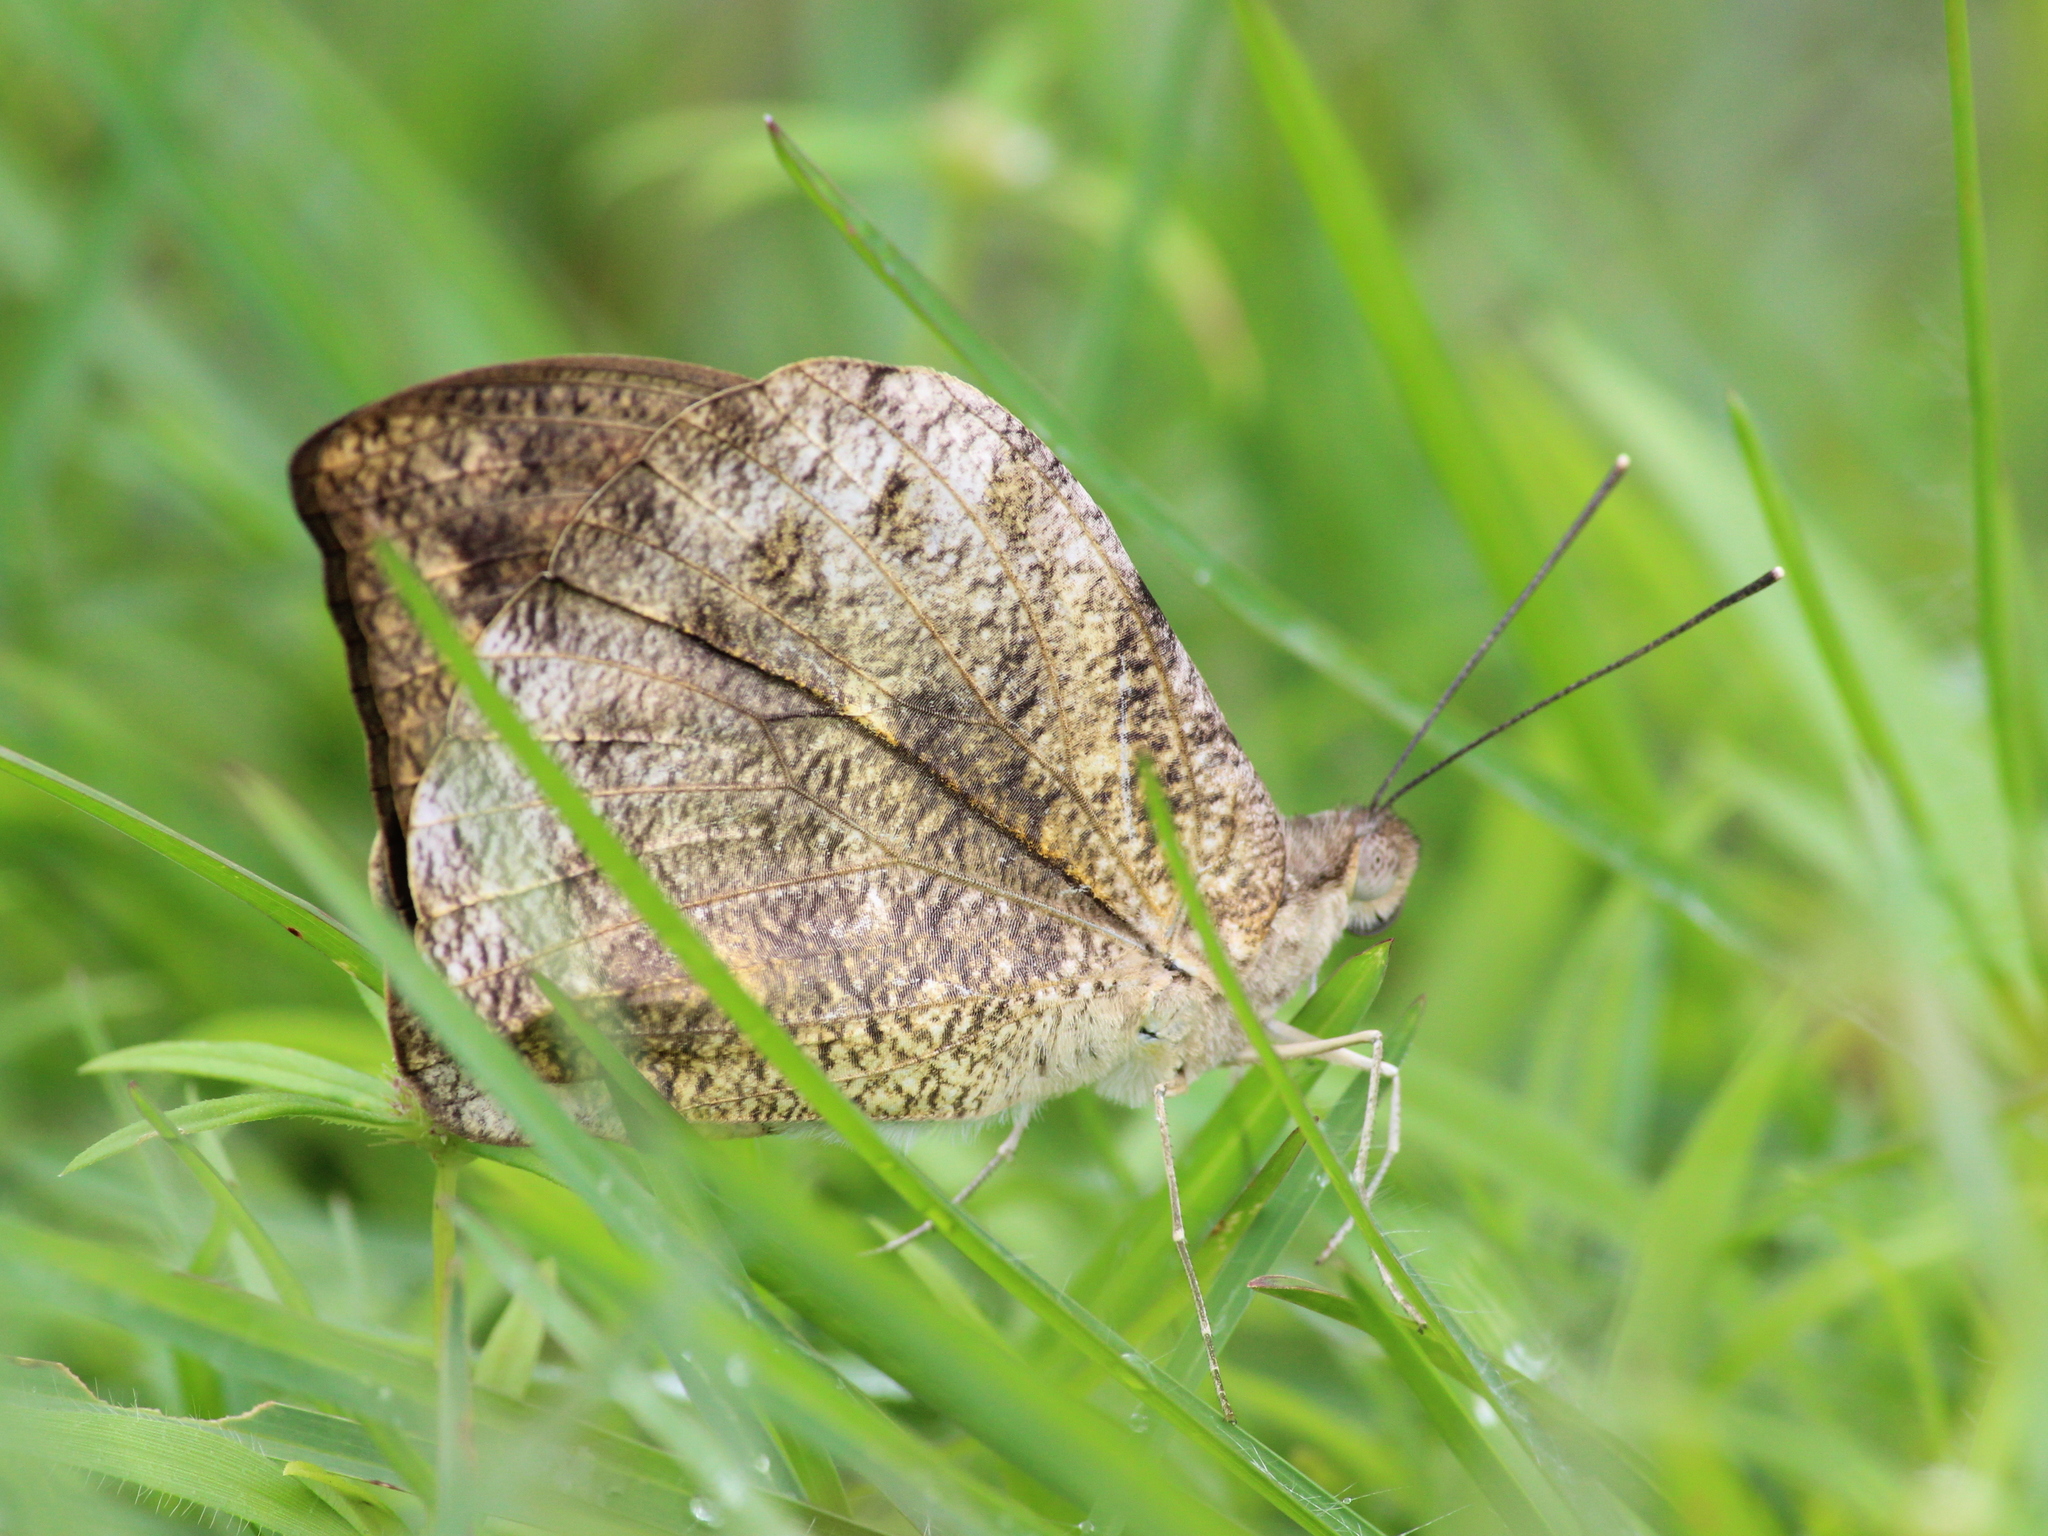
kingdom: Animalia
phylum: Arthropoda
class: Insecta
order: Lepidoptera
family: Pieridae
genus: Hebomoia
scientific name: Hebomoia glaucippe
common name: Great orange tip
